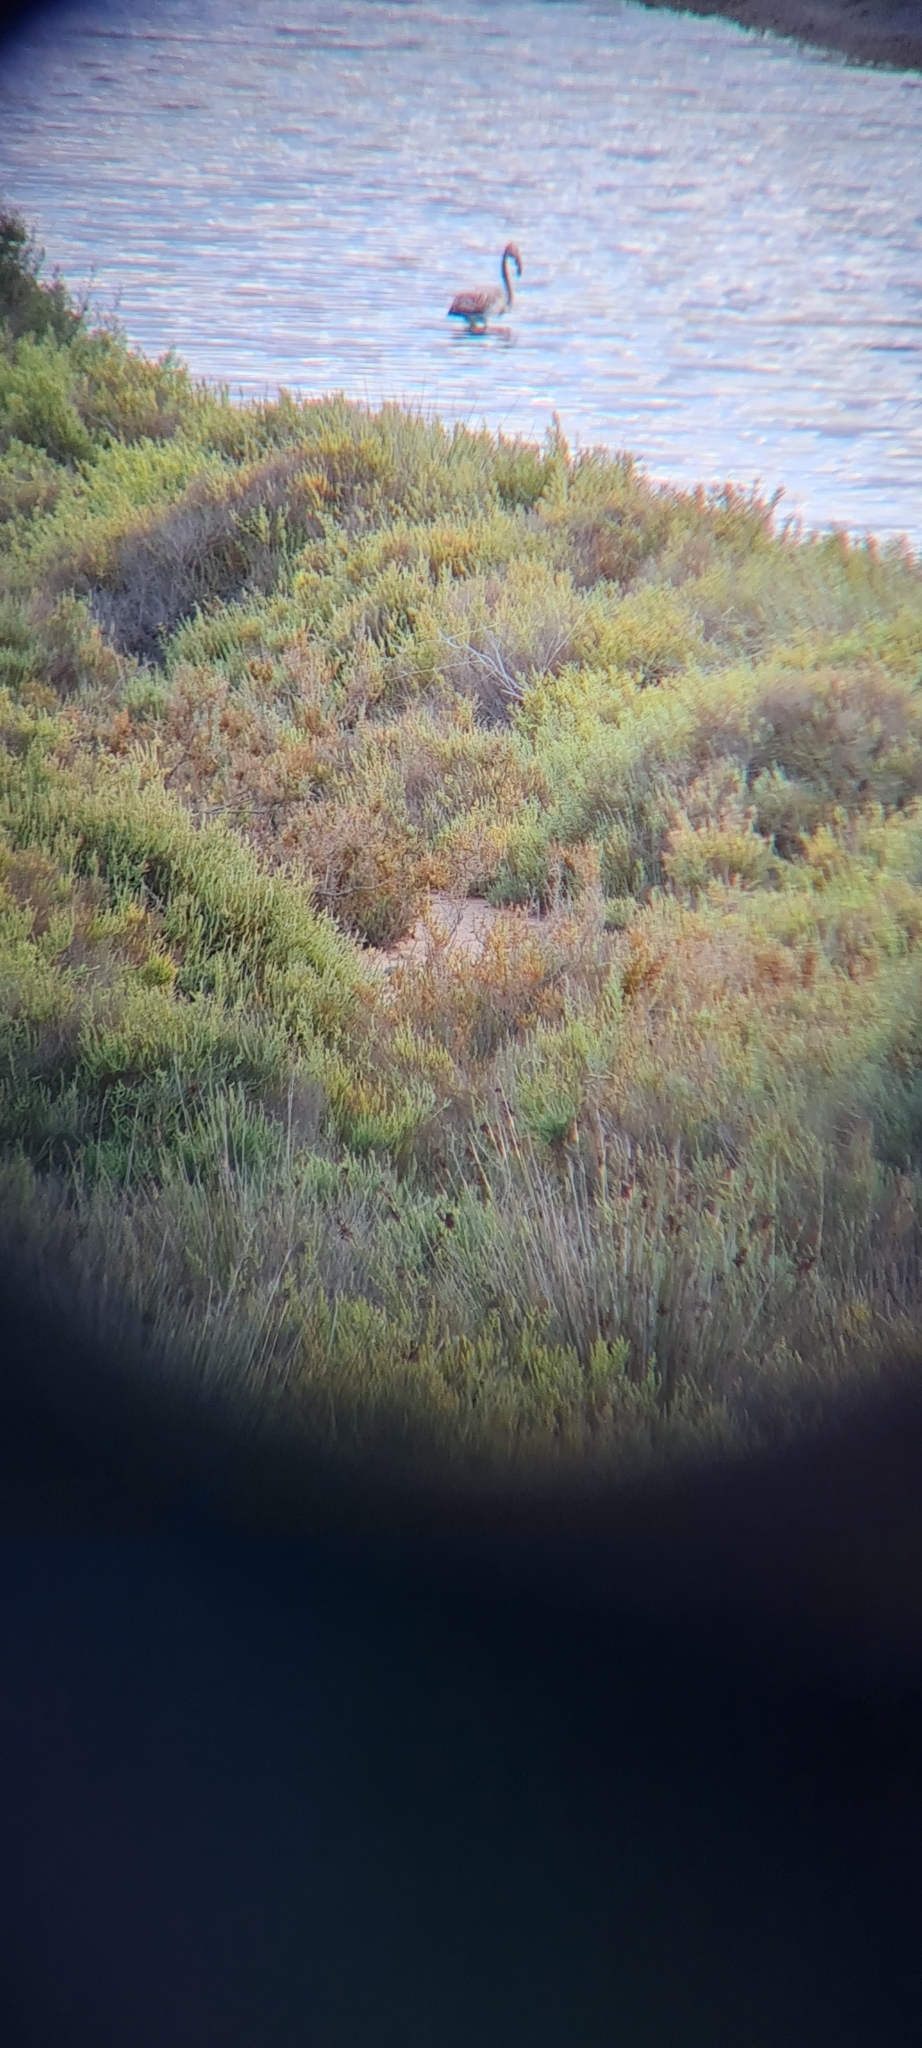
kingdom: Animalia
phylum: Chordata
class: Aves
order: Phoenicopteriformes
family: Phoenicopteridae
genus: Phoenicopterus
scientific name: Phoenicopterus roseus
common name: Greater flamingo
